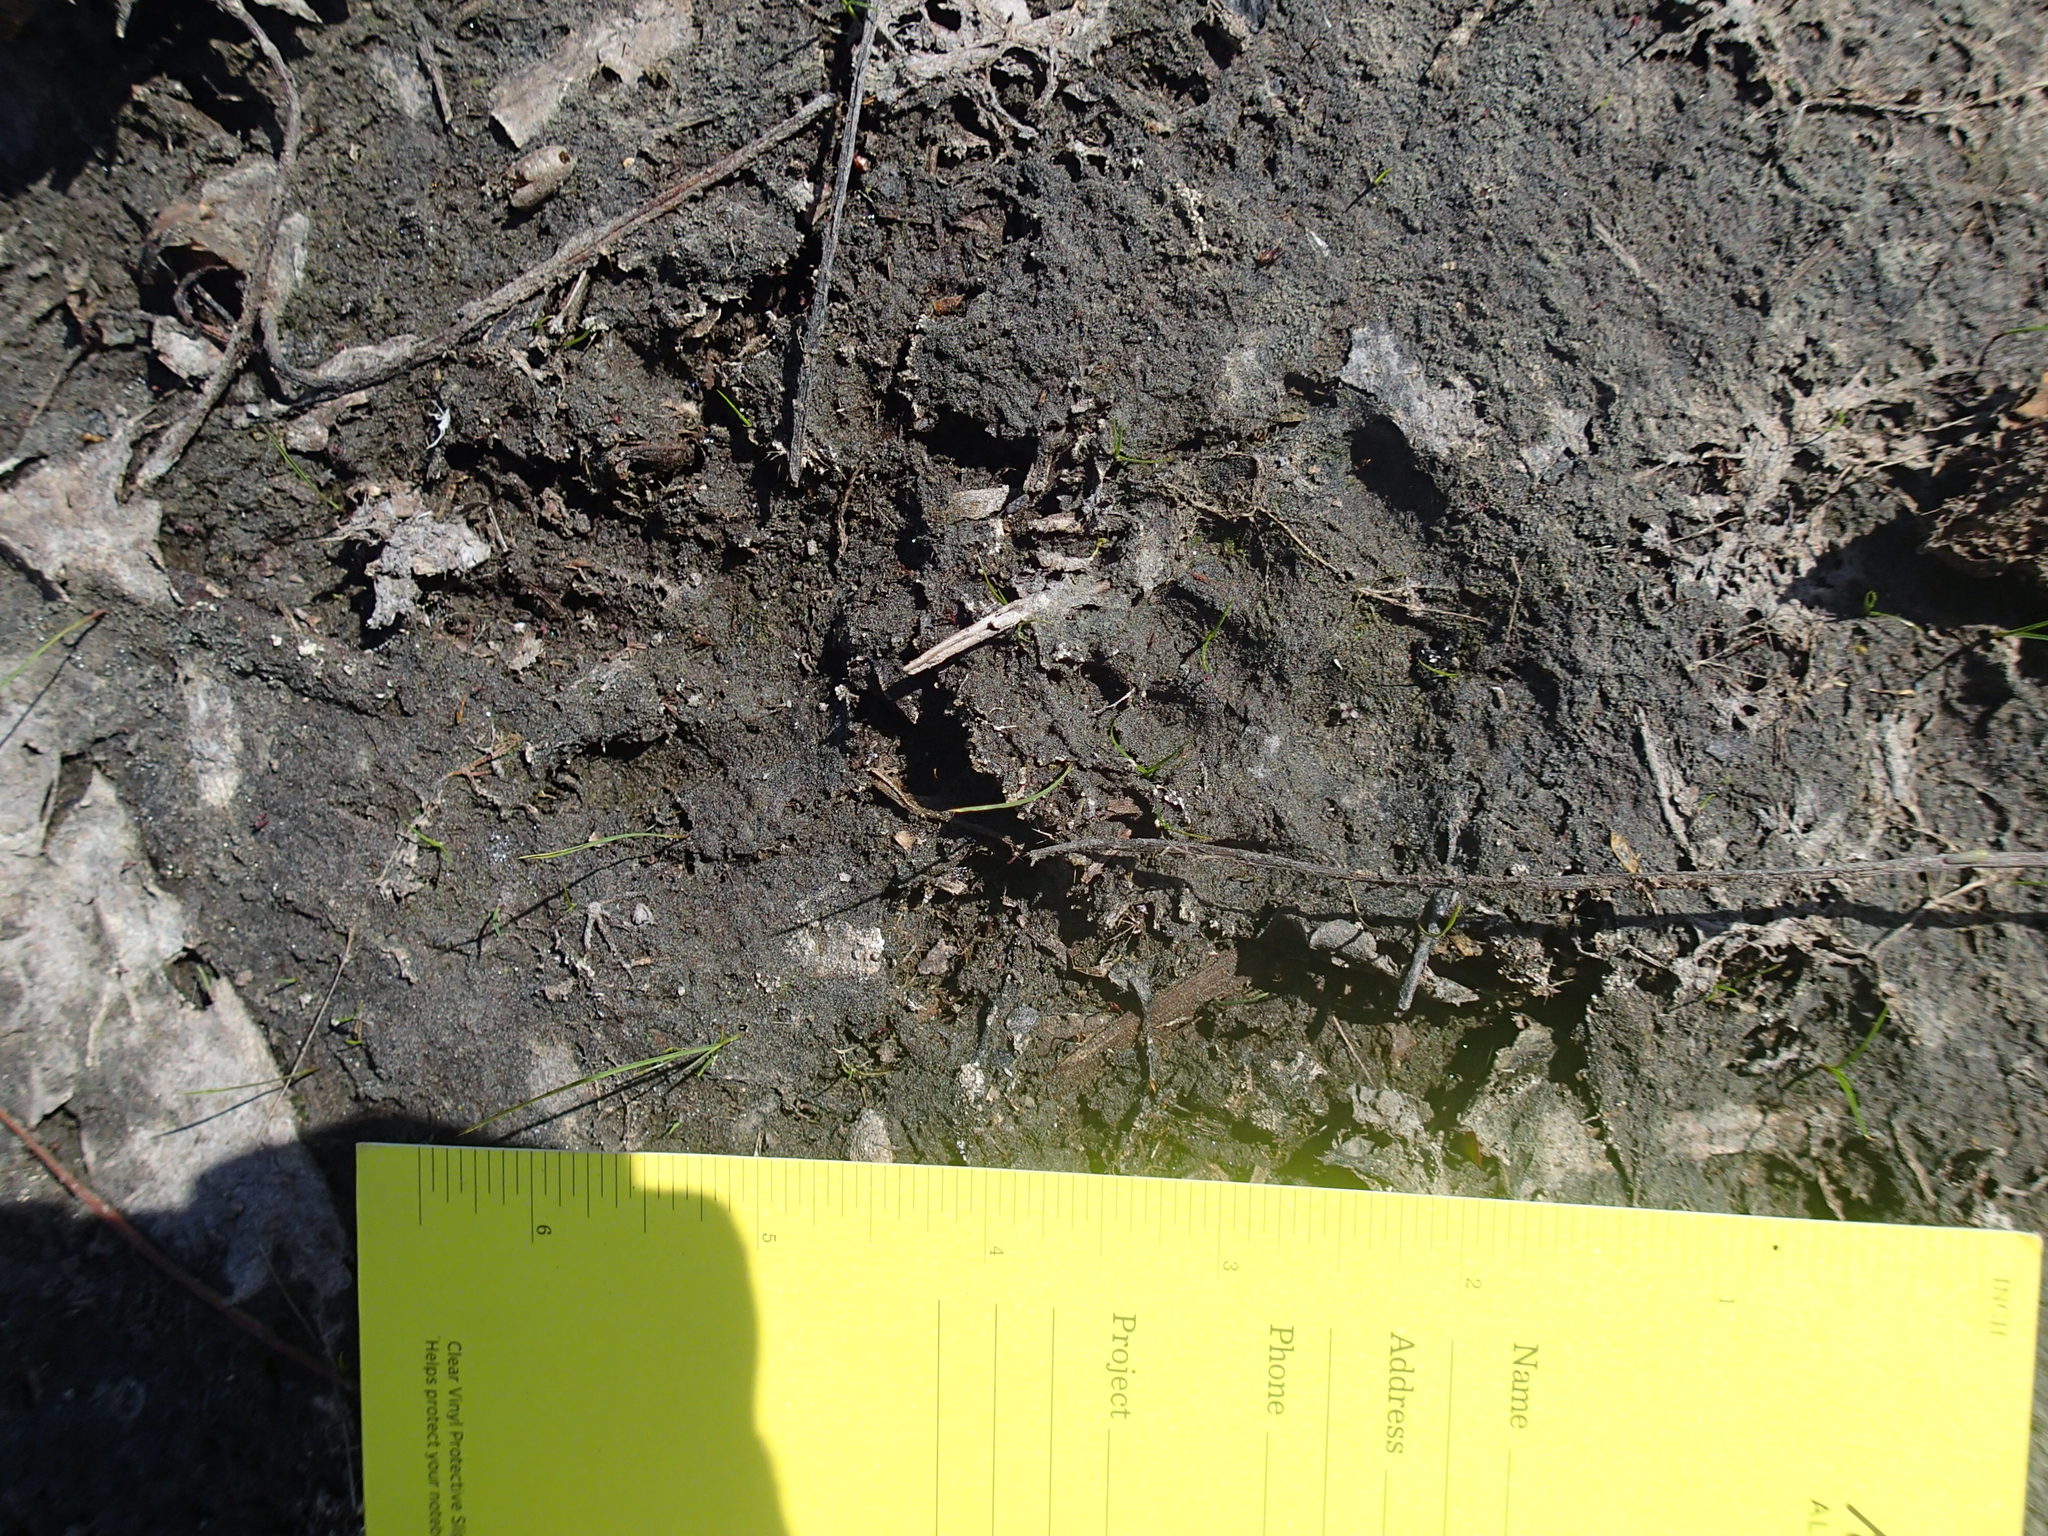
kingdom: Animalia
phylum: Chordata
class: Mammalia
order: Carnivora
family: Procyonidae
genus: Procyon
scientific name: Procyon lotor
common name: Raccoon
